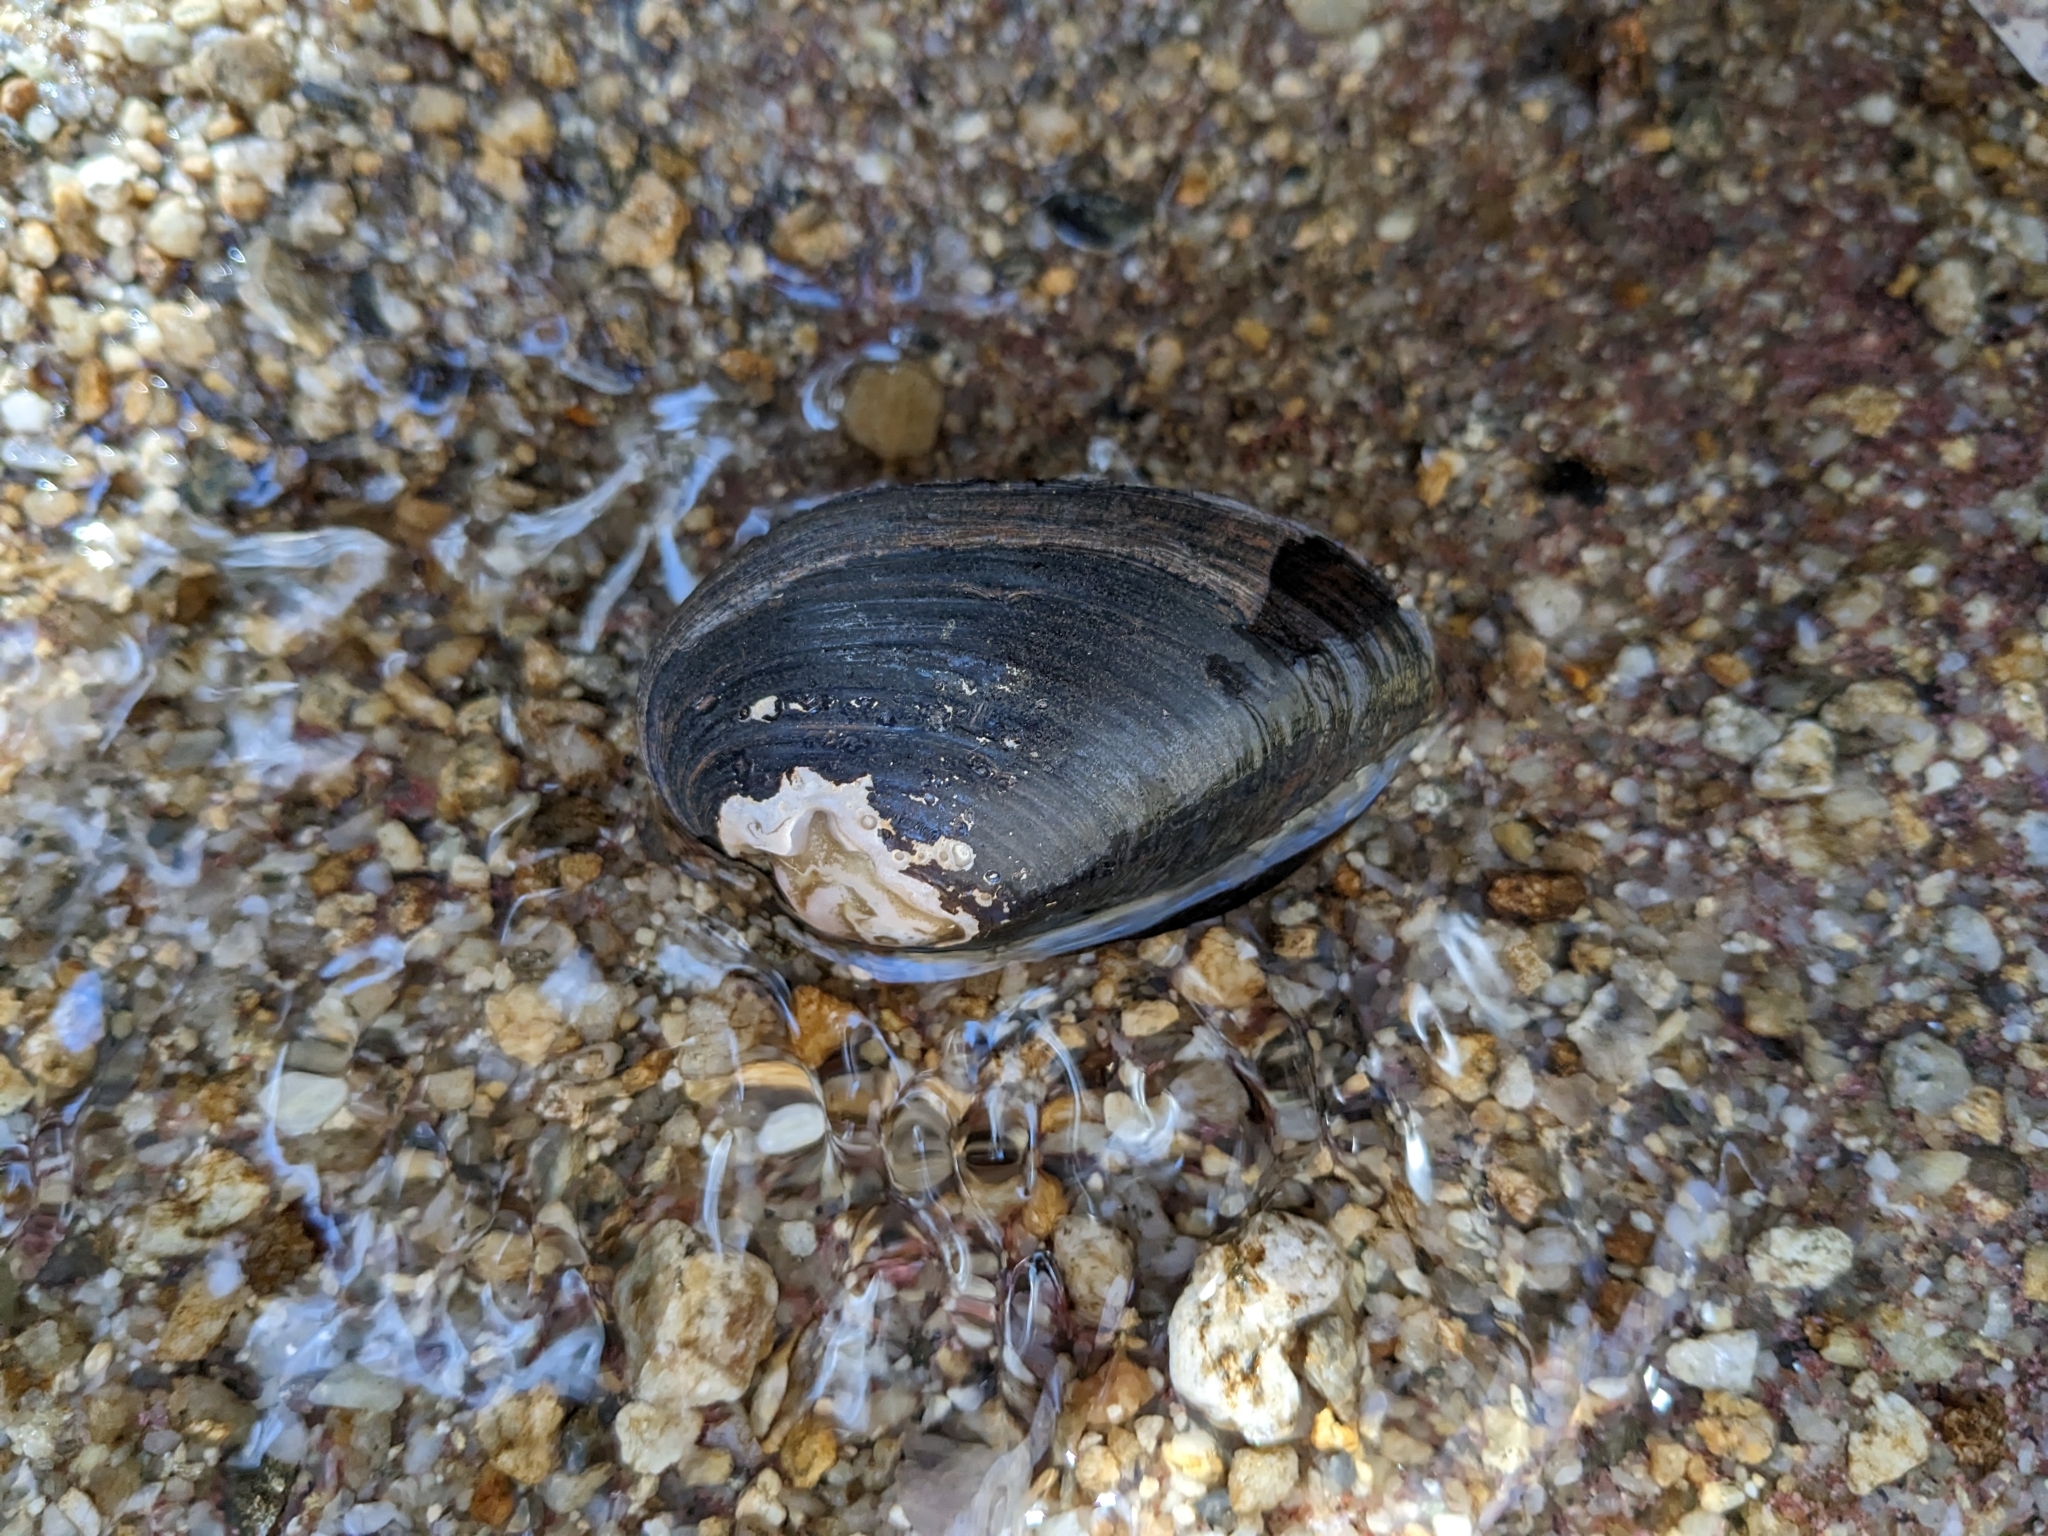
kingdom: Animalia
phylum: Mollusca
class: Bivalvia
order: Unionida
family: Unionidae
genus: Alasmidonta
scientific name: Alasmidonta undulata
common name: Triangle floater
